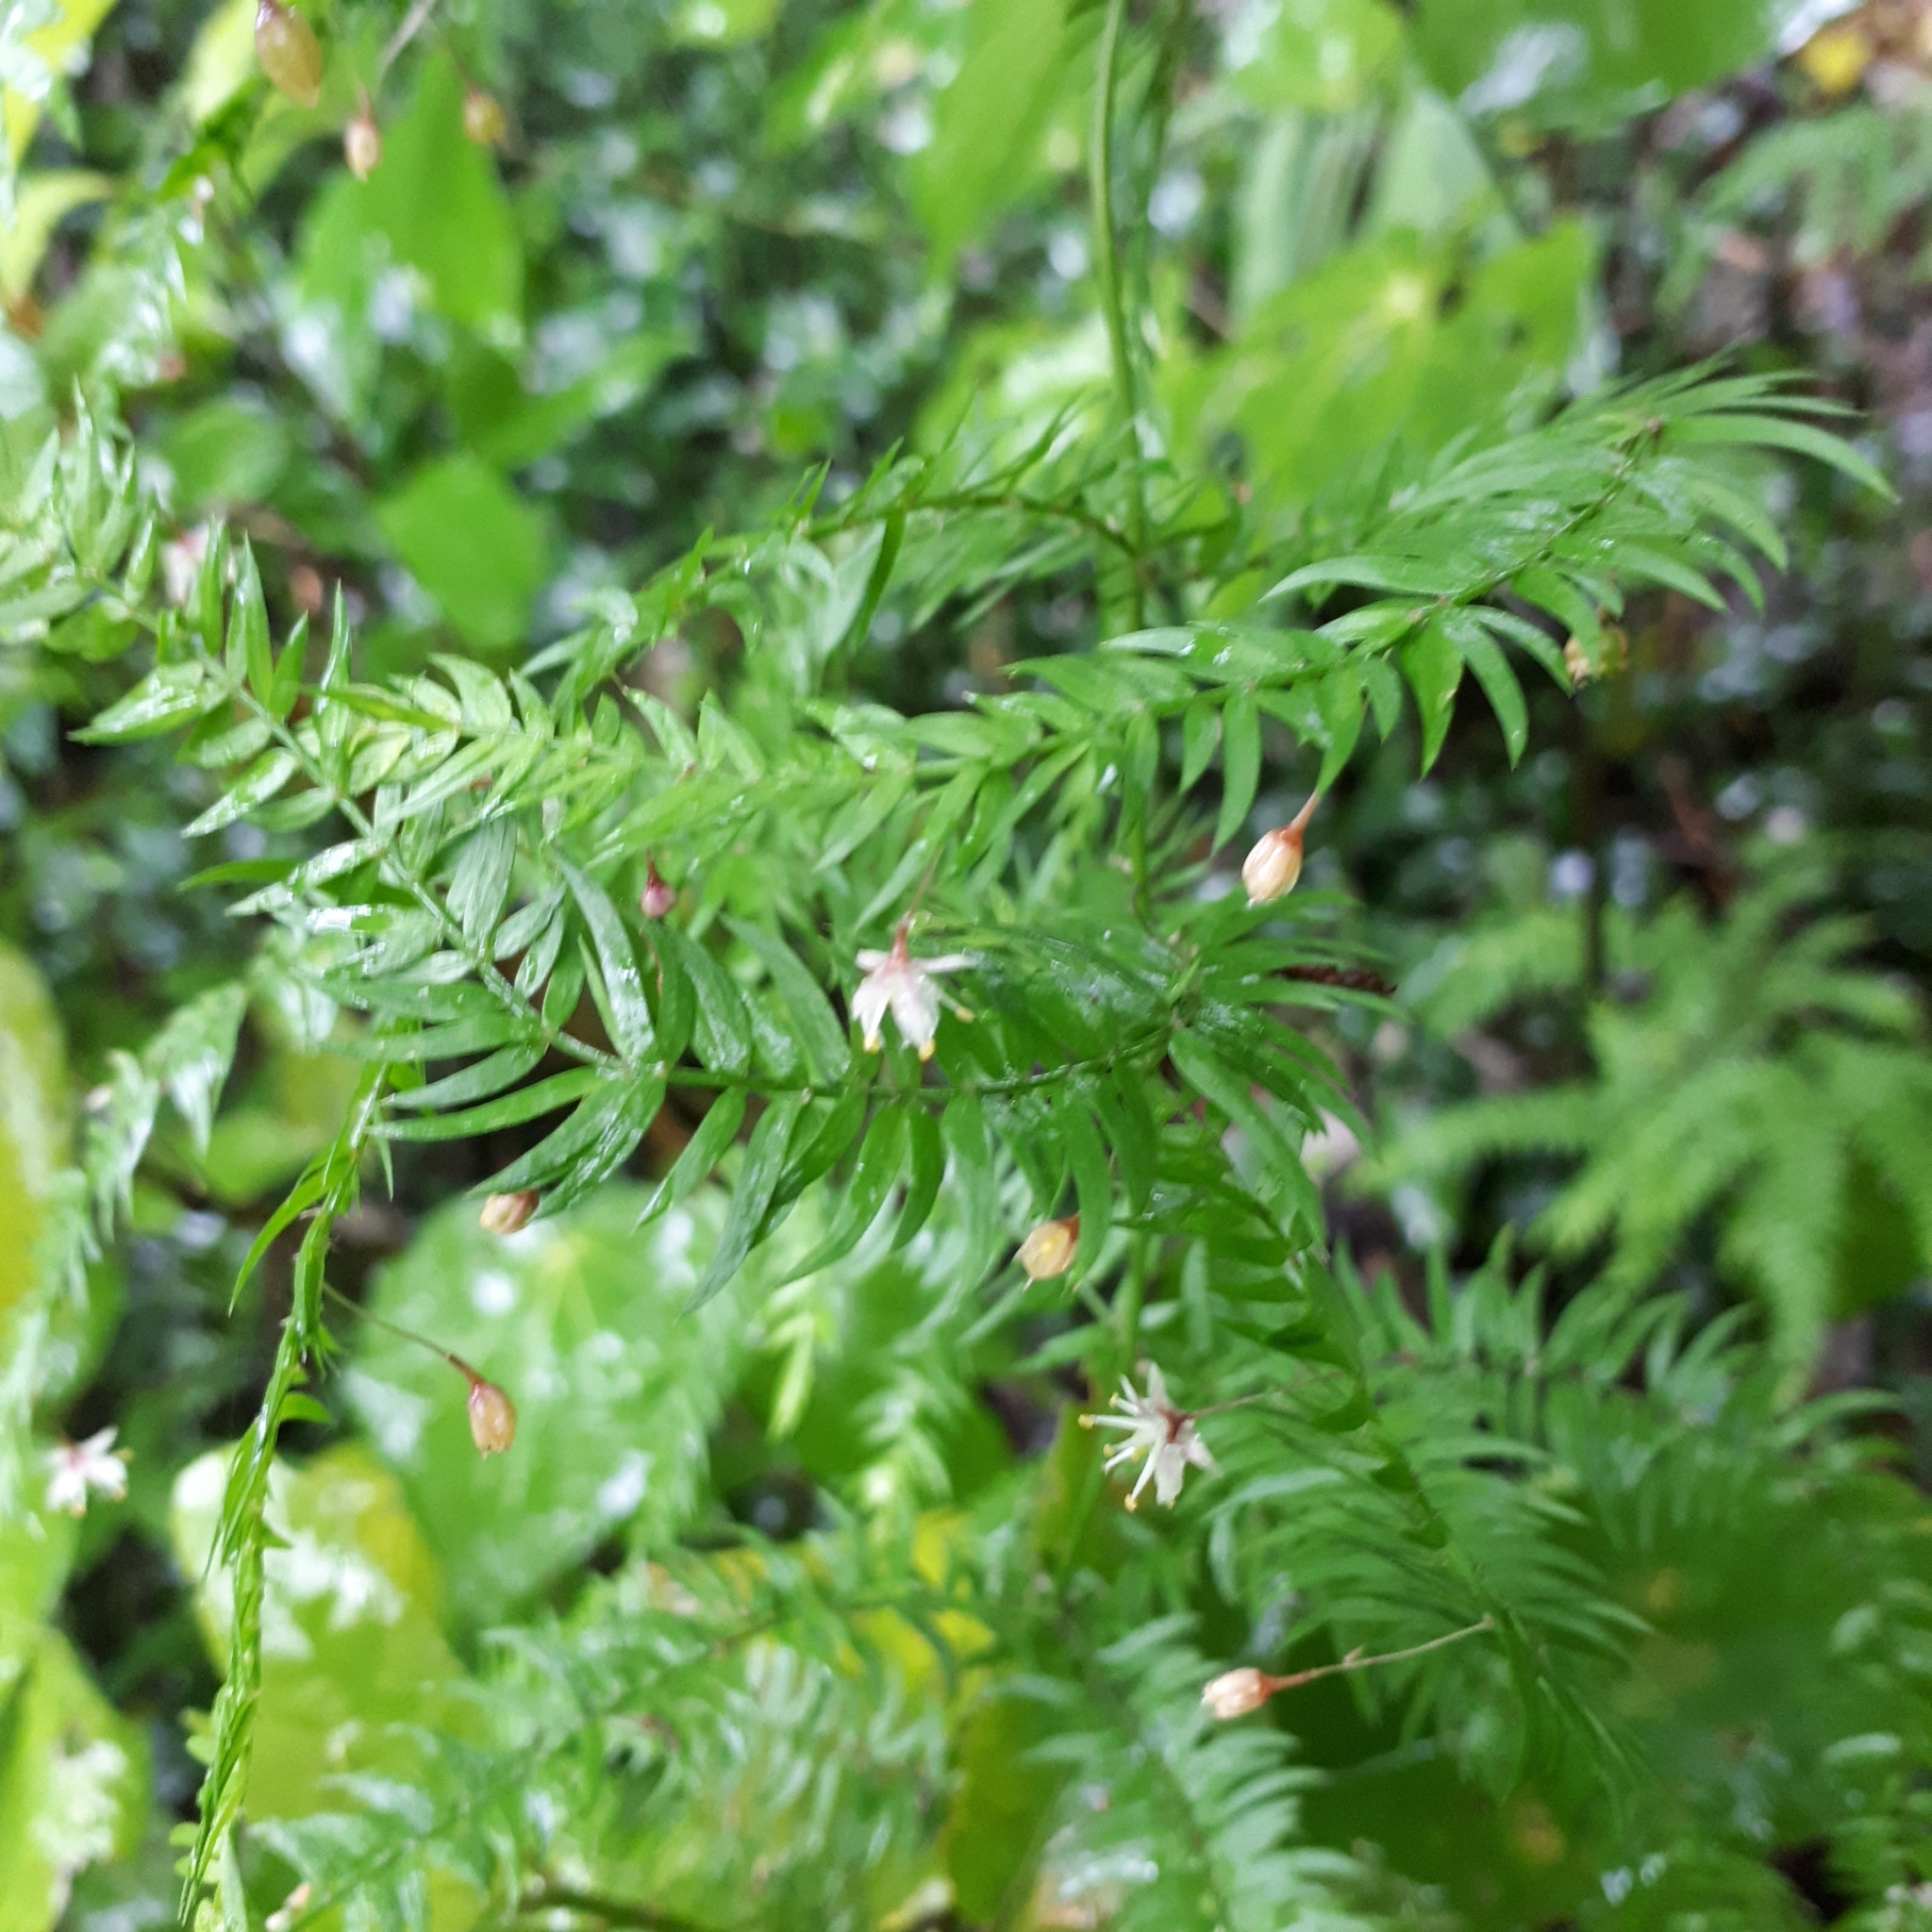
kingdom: Plantae
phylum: Tracheophyta
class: Liliopsida
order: Asparagales
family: Asparagaceae
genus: Asparagus
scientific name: Asparagus scandens
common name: Asparagus-fern
